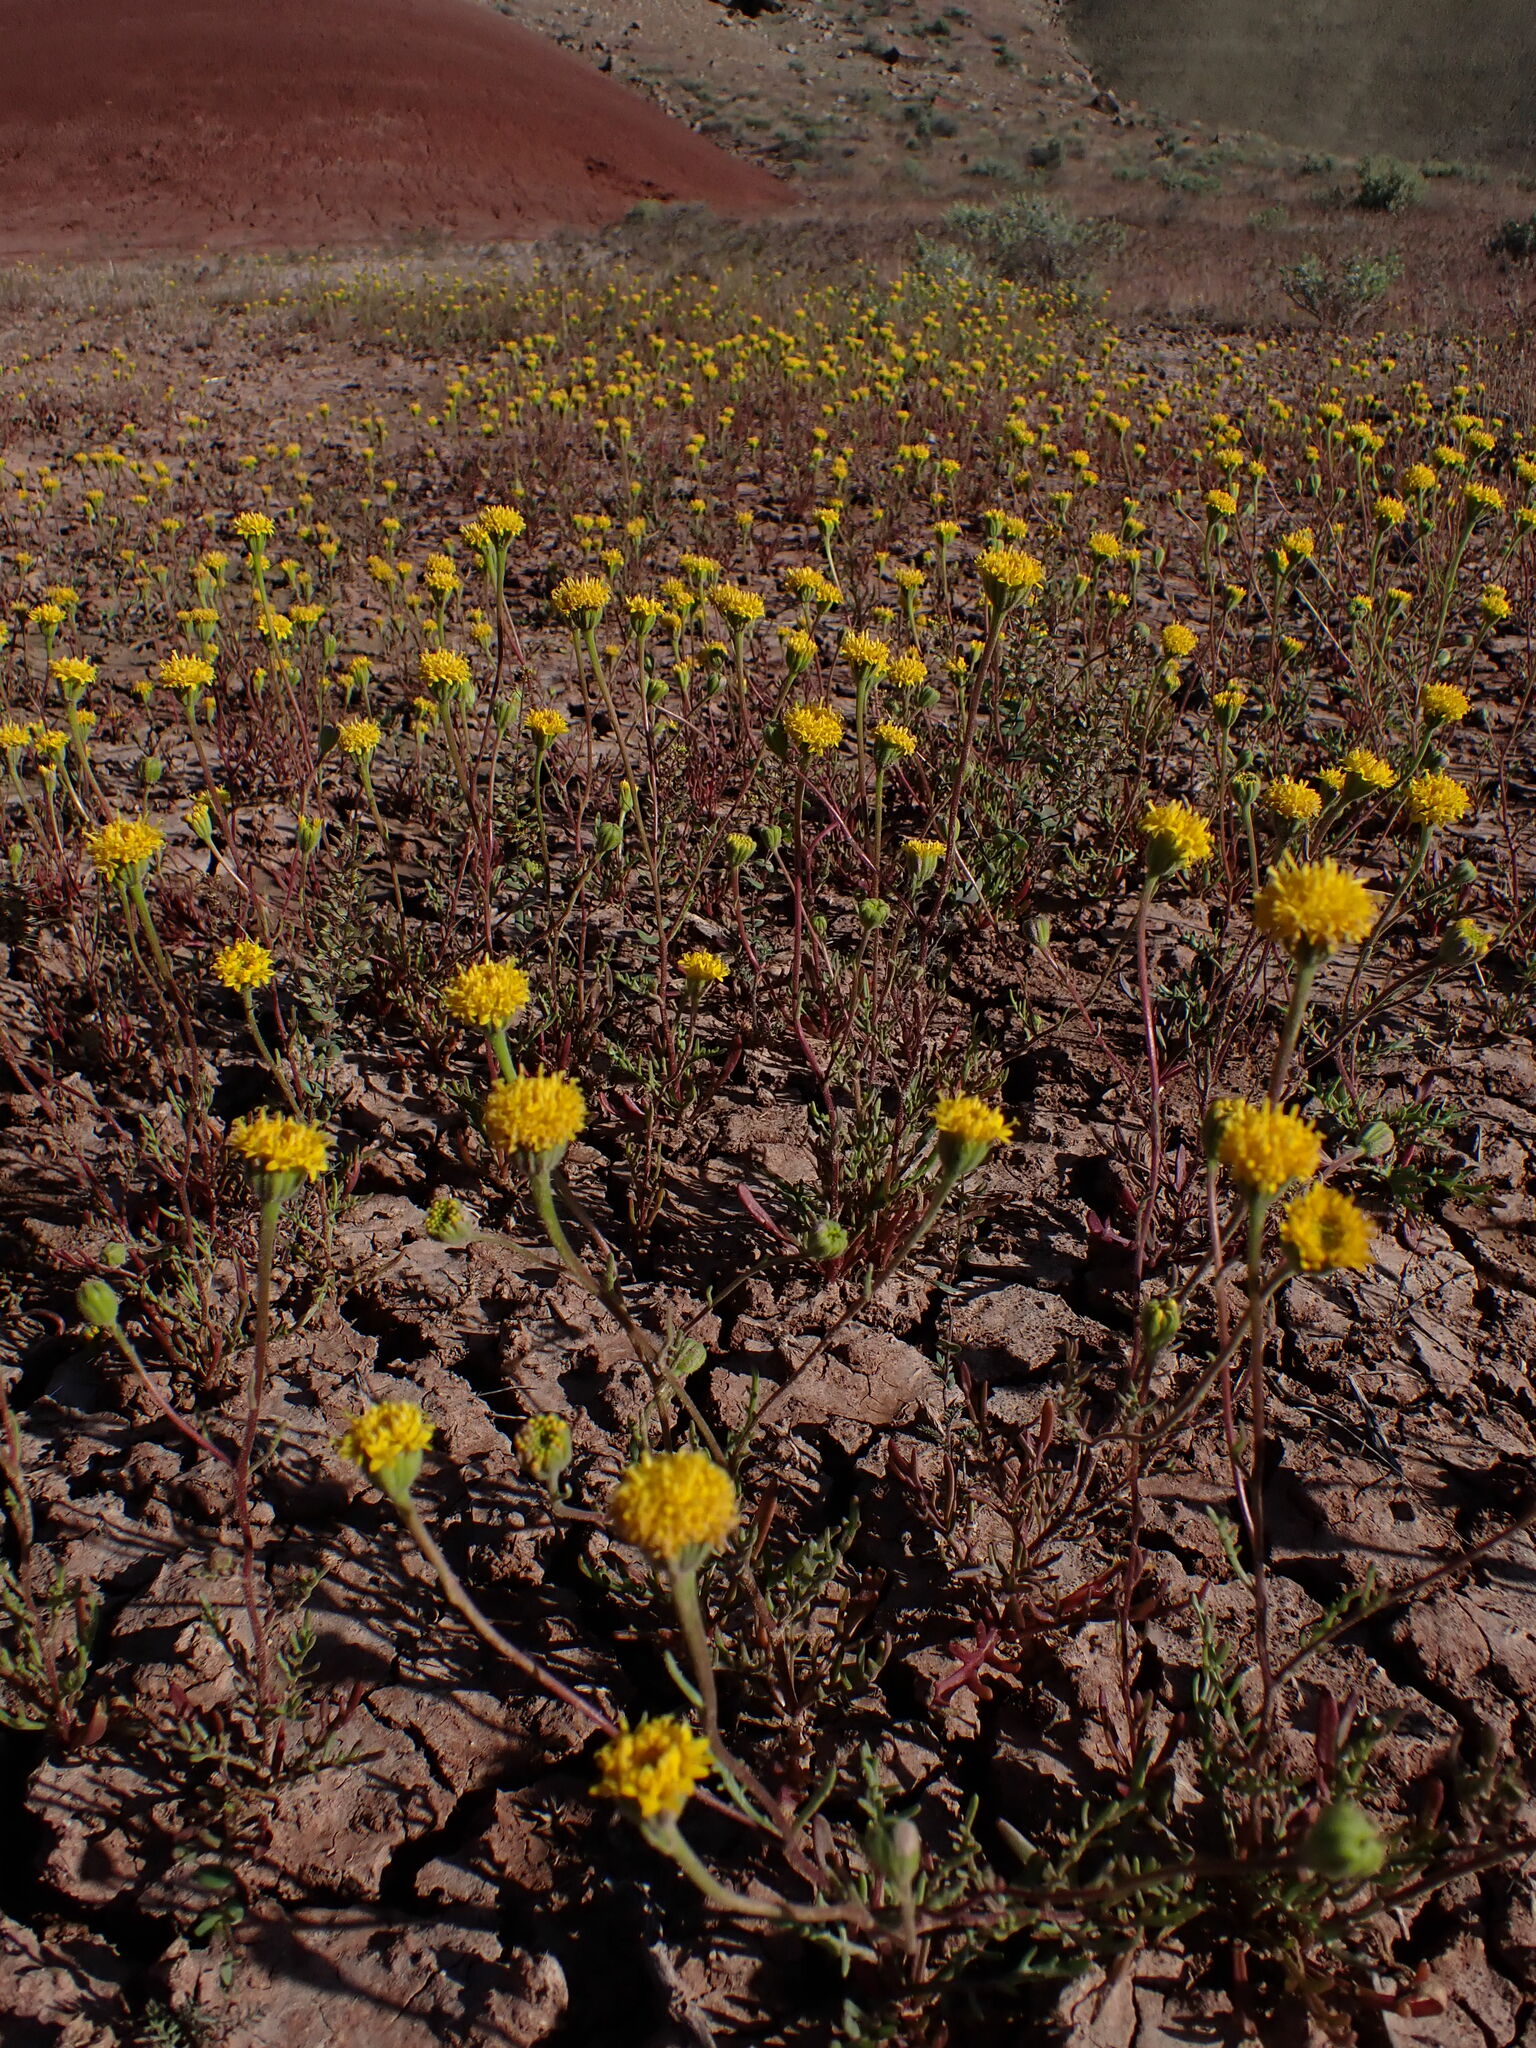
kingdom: Plantae
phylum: Tracheophyta
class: Magnoliopsida
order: Asterales
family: Asteraceae
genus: Chaenactis
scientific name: Chaenactis nevii
